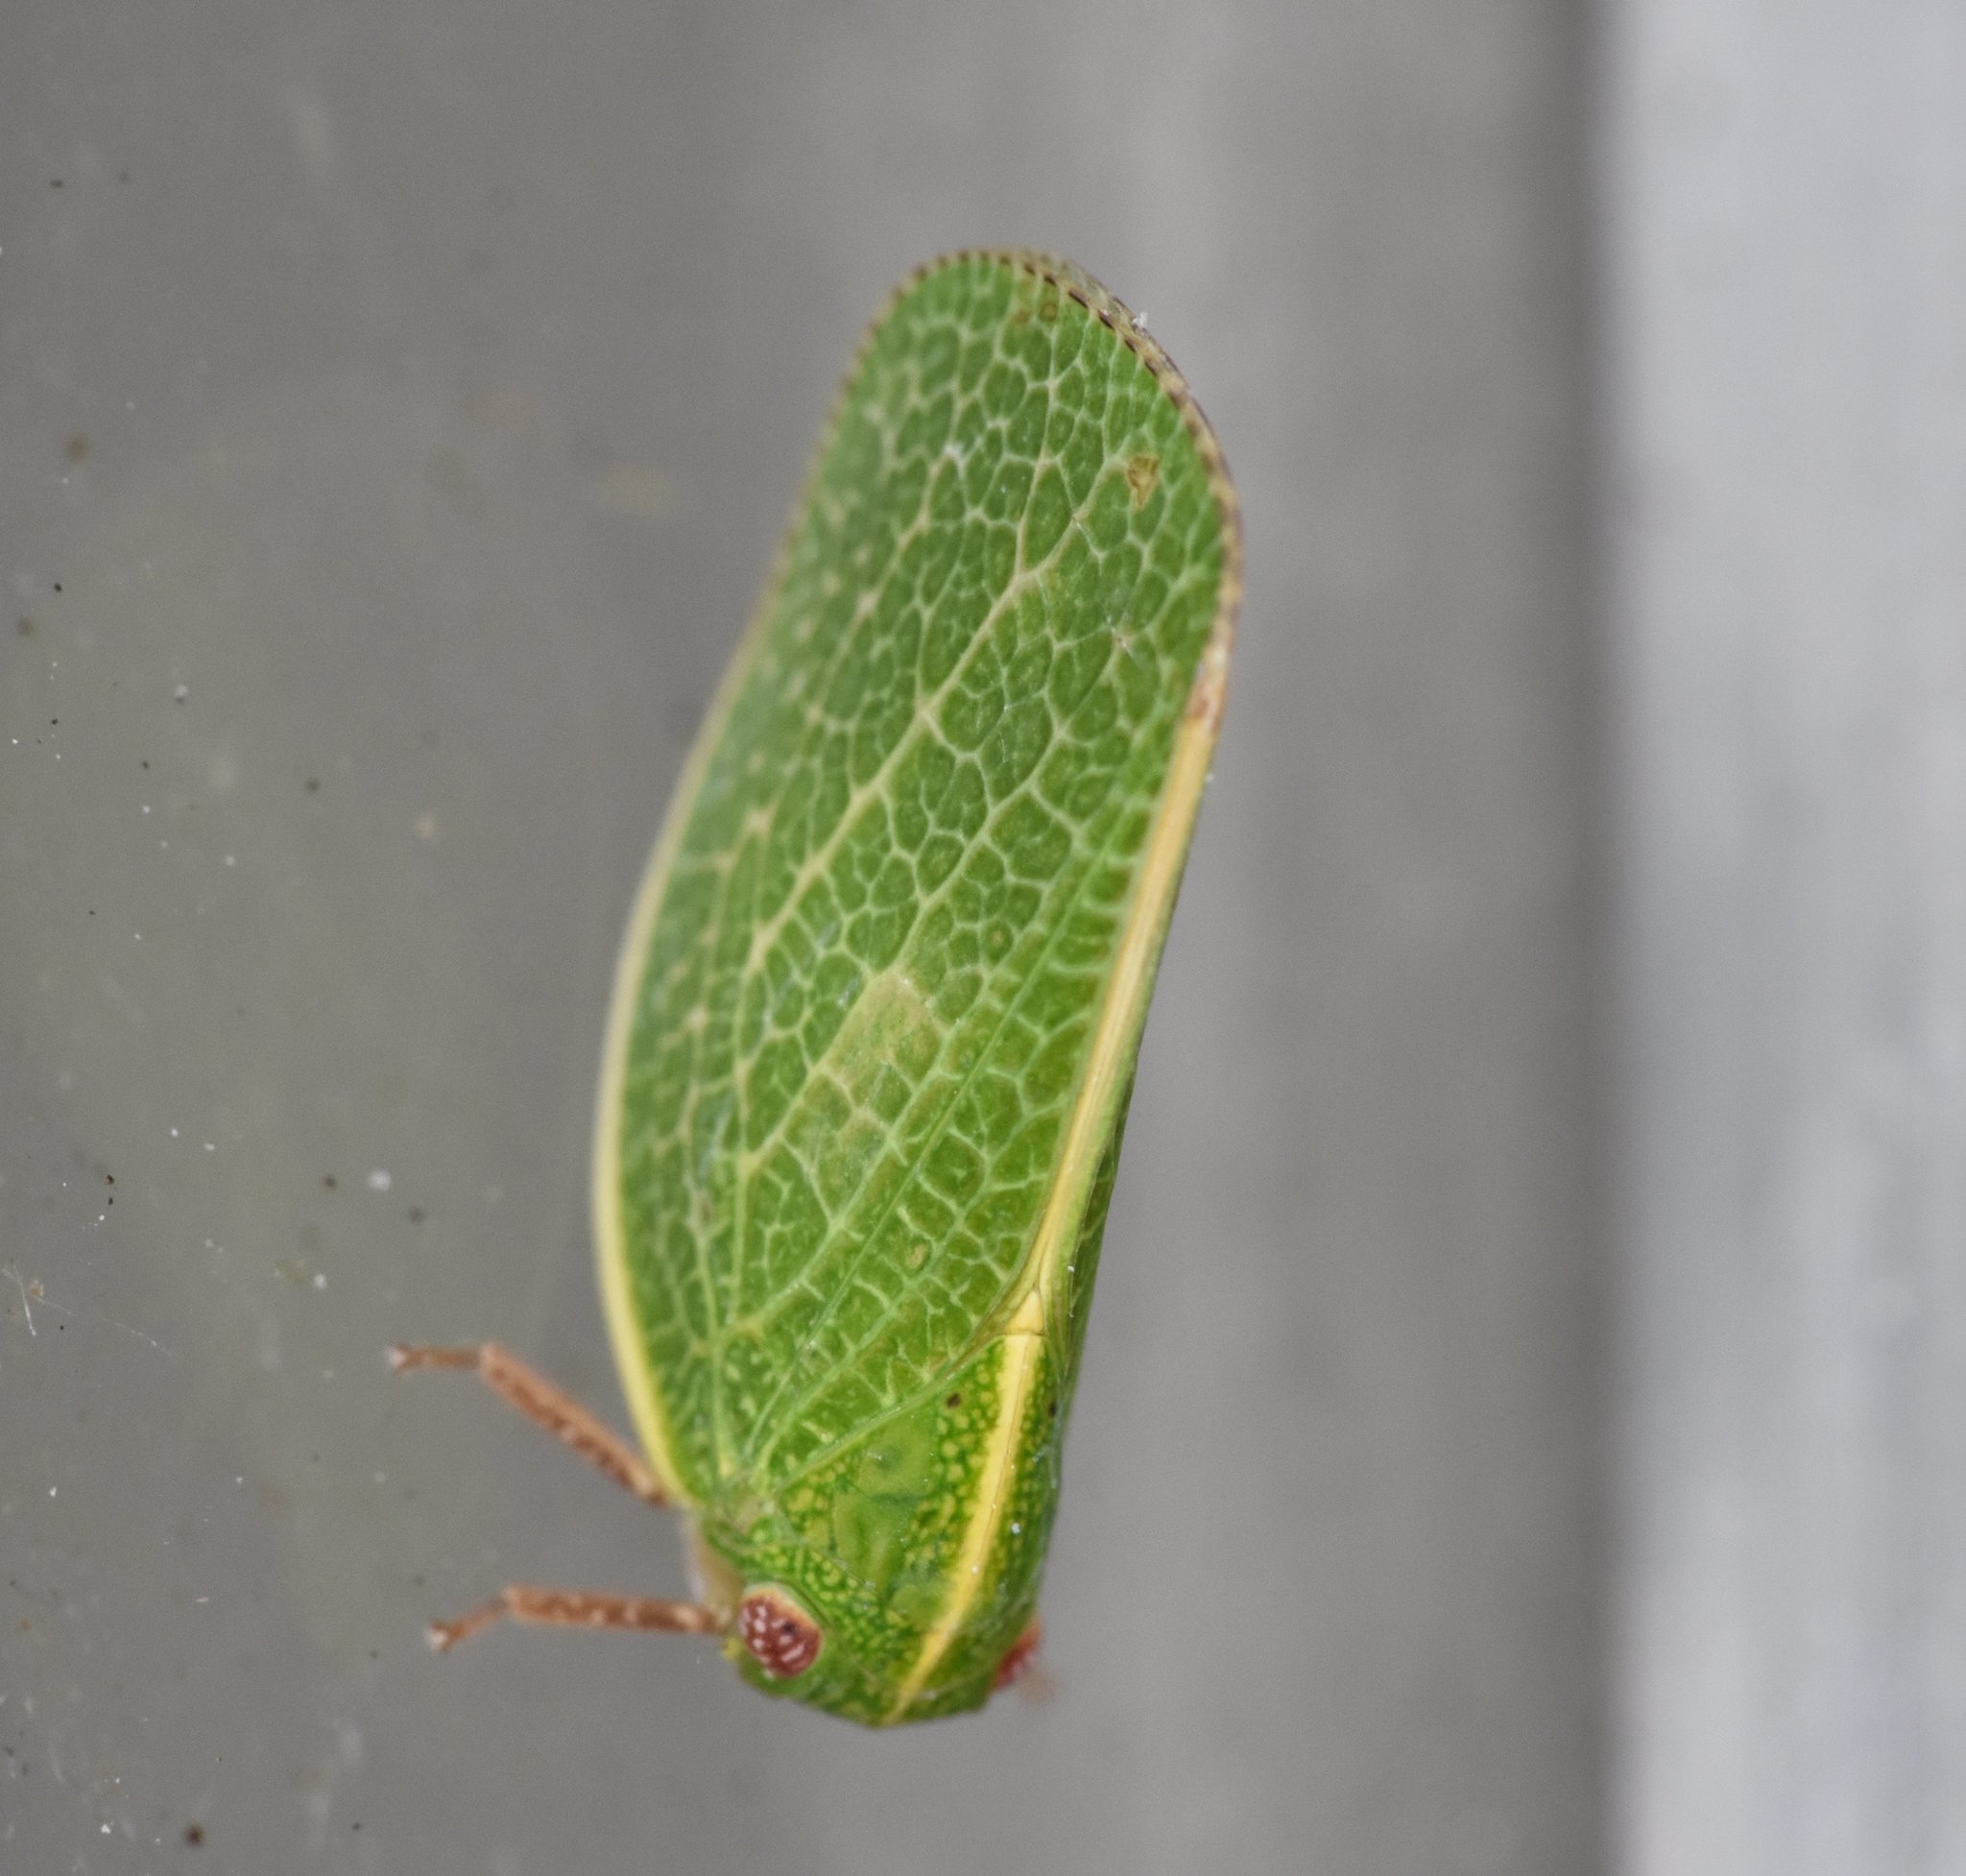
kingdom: Animalia
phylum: Arthropoda
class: Insecta
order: Hemiptera
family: Acanaloniidae
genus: Acanalonia
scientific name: Acanalonia servillei
